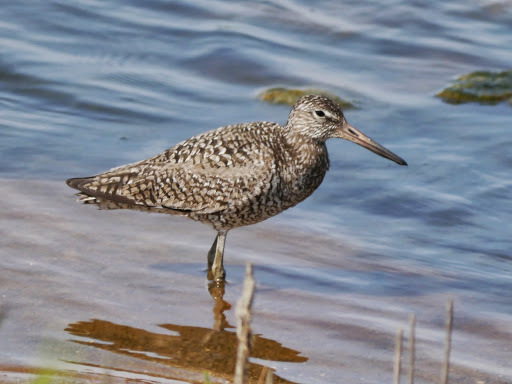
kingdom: Animalia
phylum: Chordata
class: Aves
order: Charadriiformes
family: Scolopacidae
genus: Tringa
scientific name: Tringa semipalmata
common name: Willet
